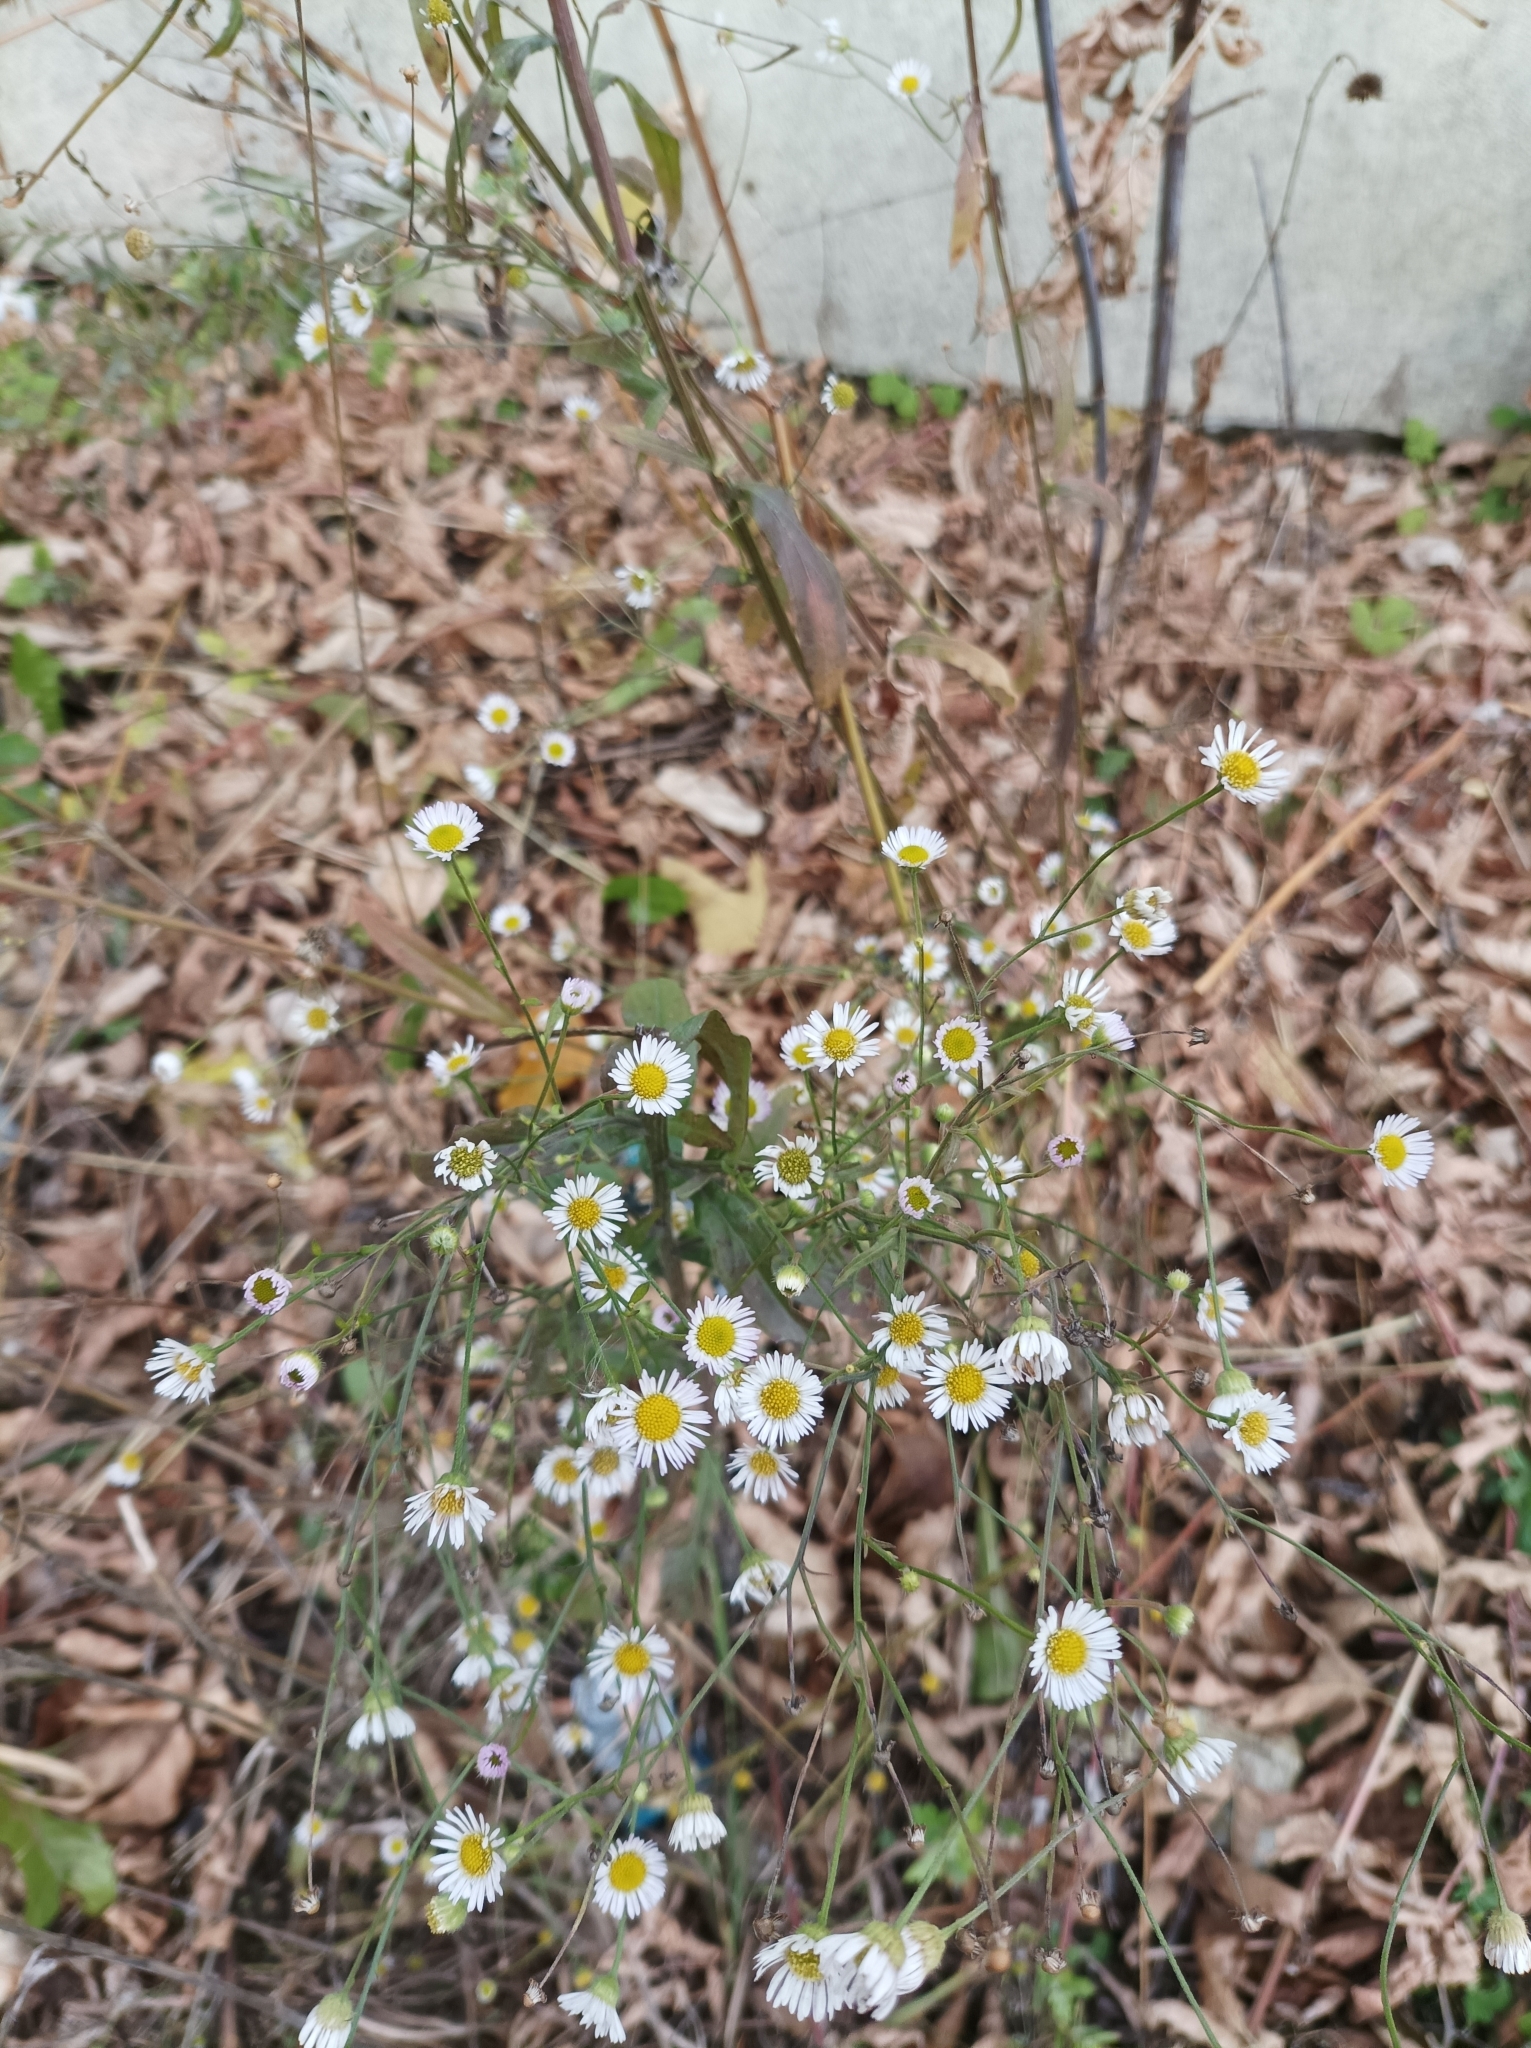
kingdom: Plantae
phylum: Tracheophyta
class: Magnoliopsida
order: Asterales
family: Asteraceae
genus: Erigeron
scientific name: Erigeron annuus
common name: Tall fleabane
